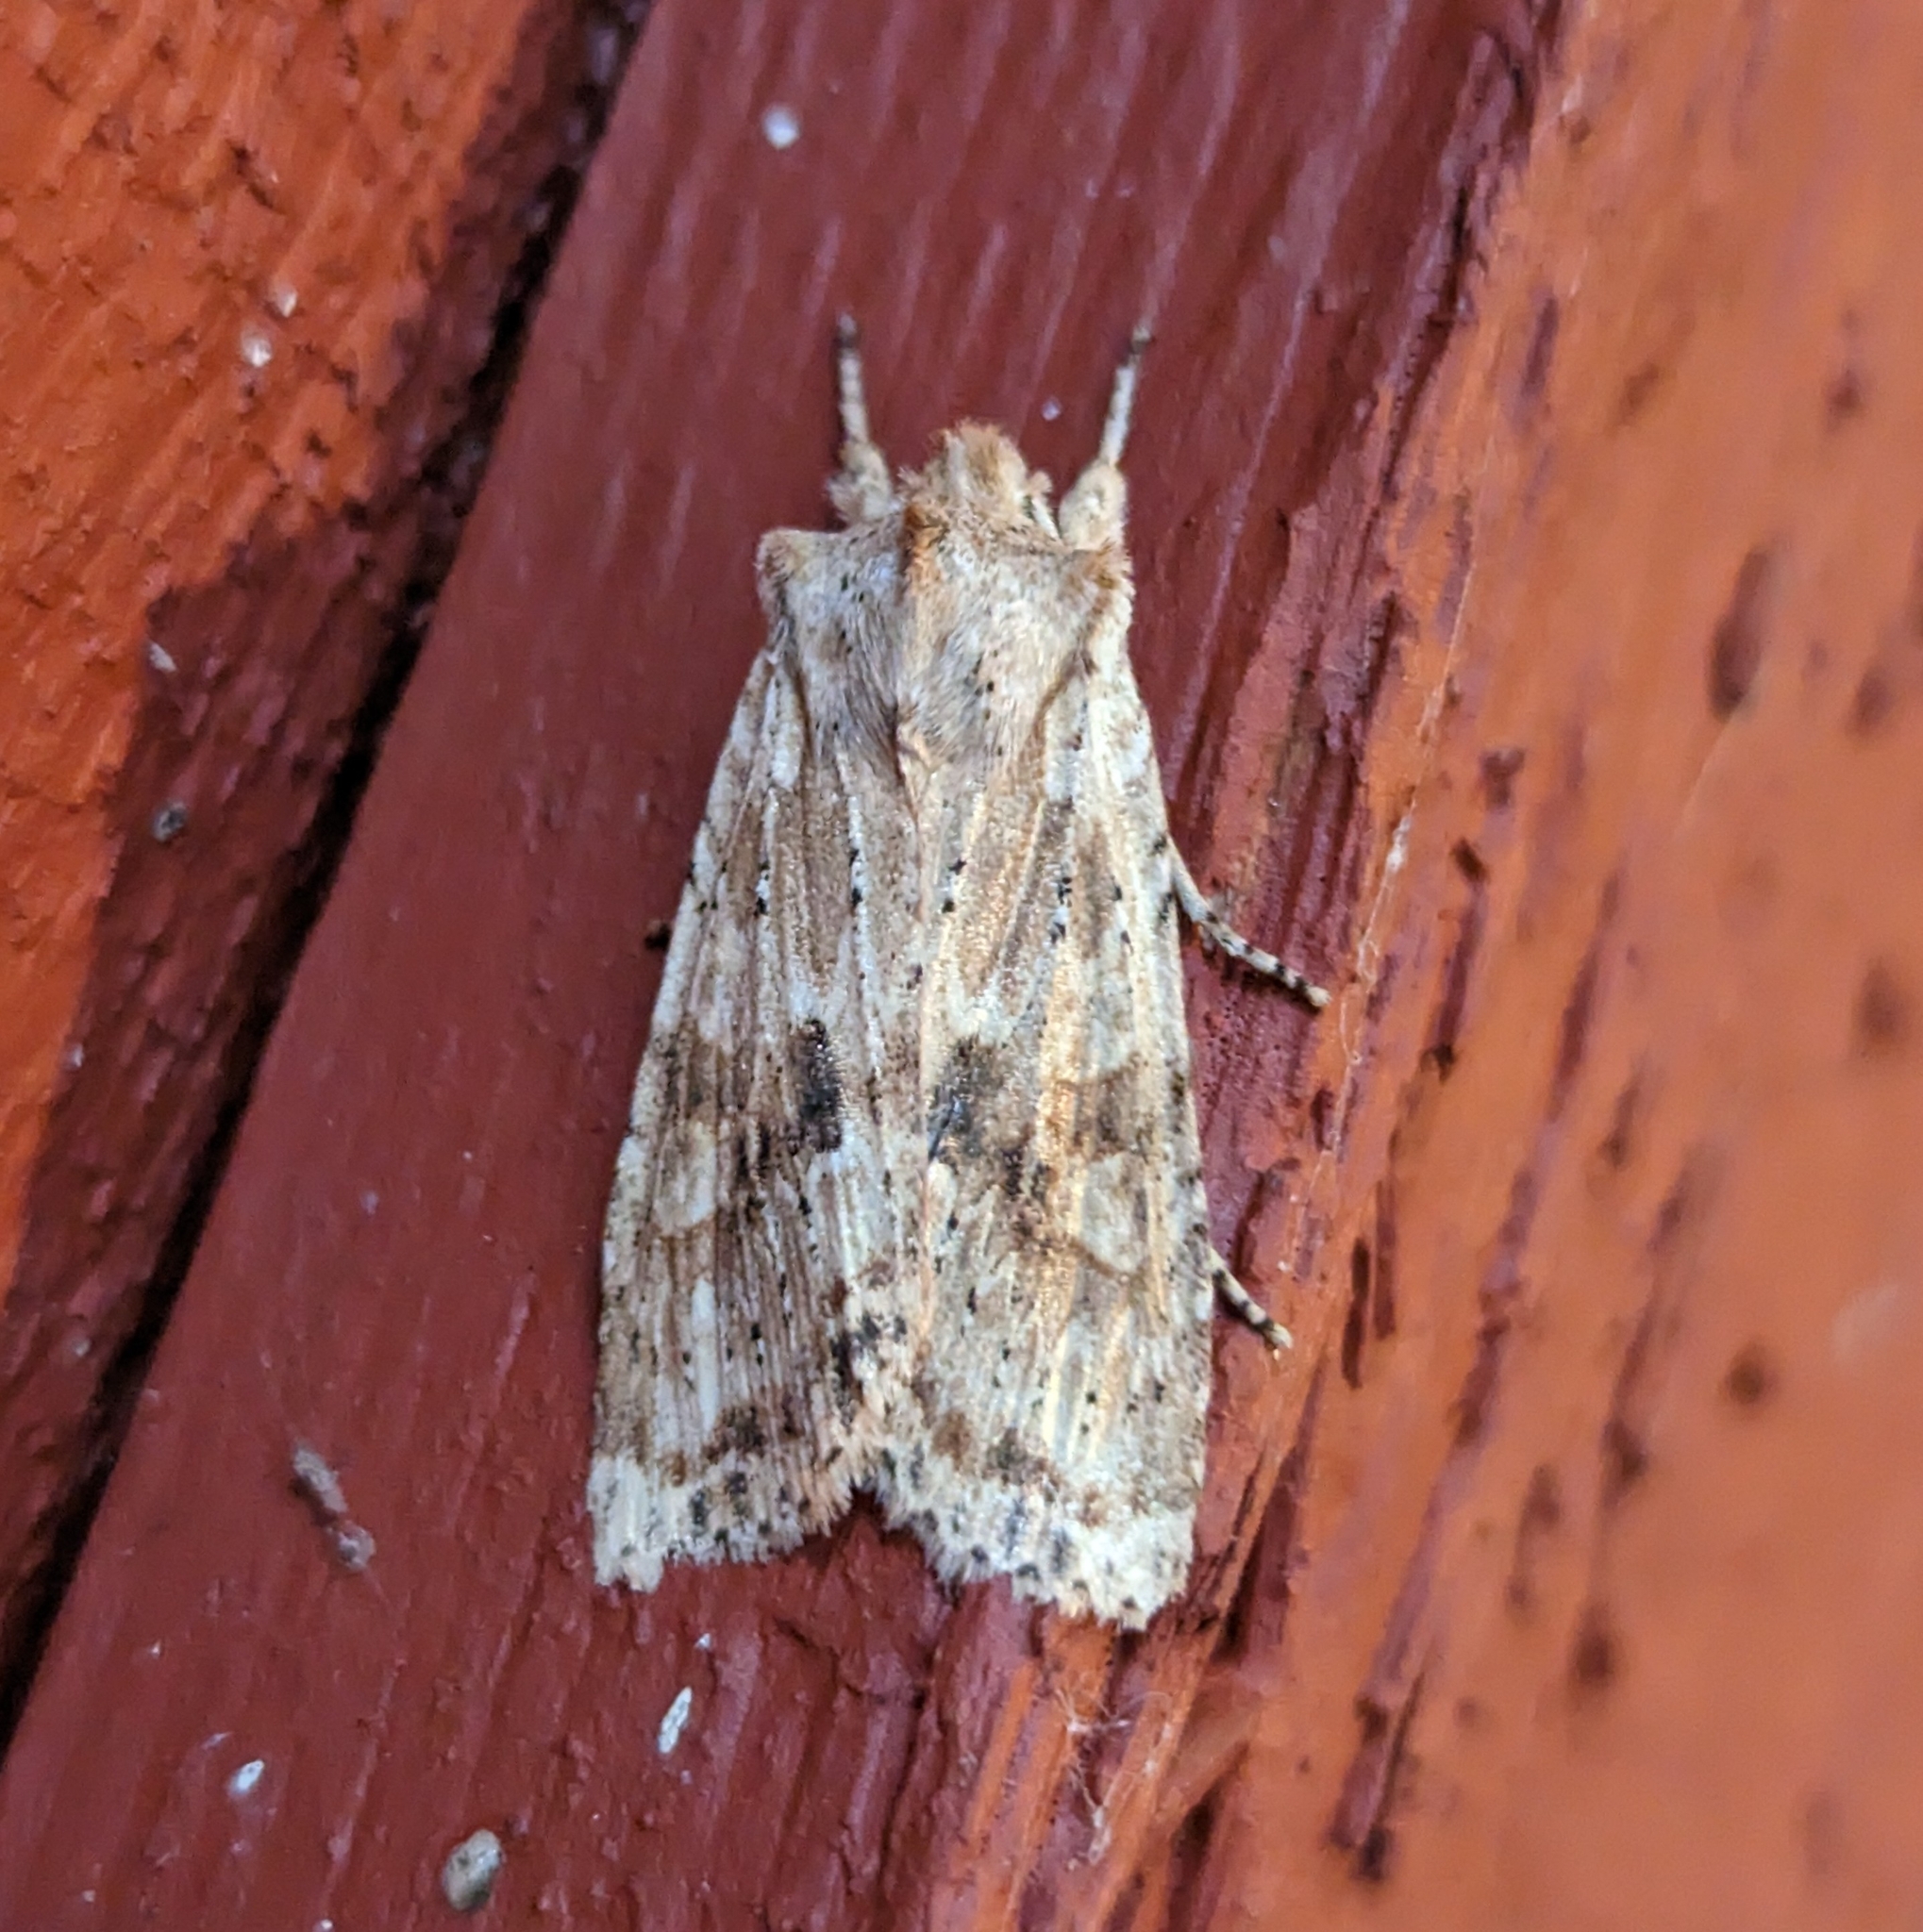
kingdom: Animalia
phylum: Arthropoda
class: Insecta
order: Lepidoptera
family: Noctuidae
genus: Lithophane
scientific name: Lithophane innominata
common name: Nameless pinion moth
